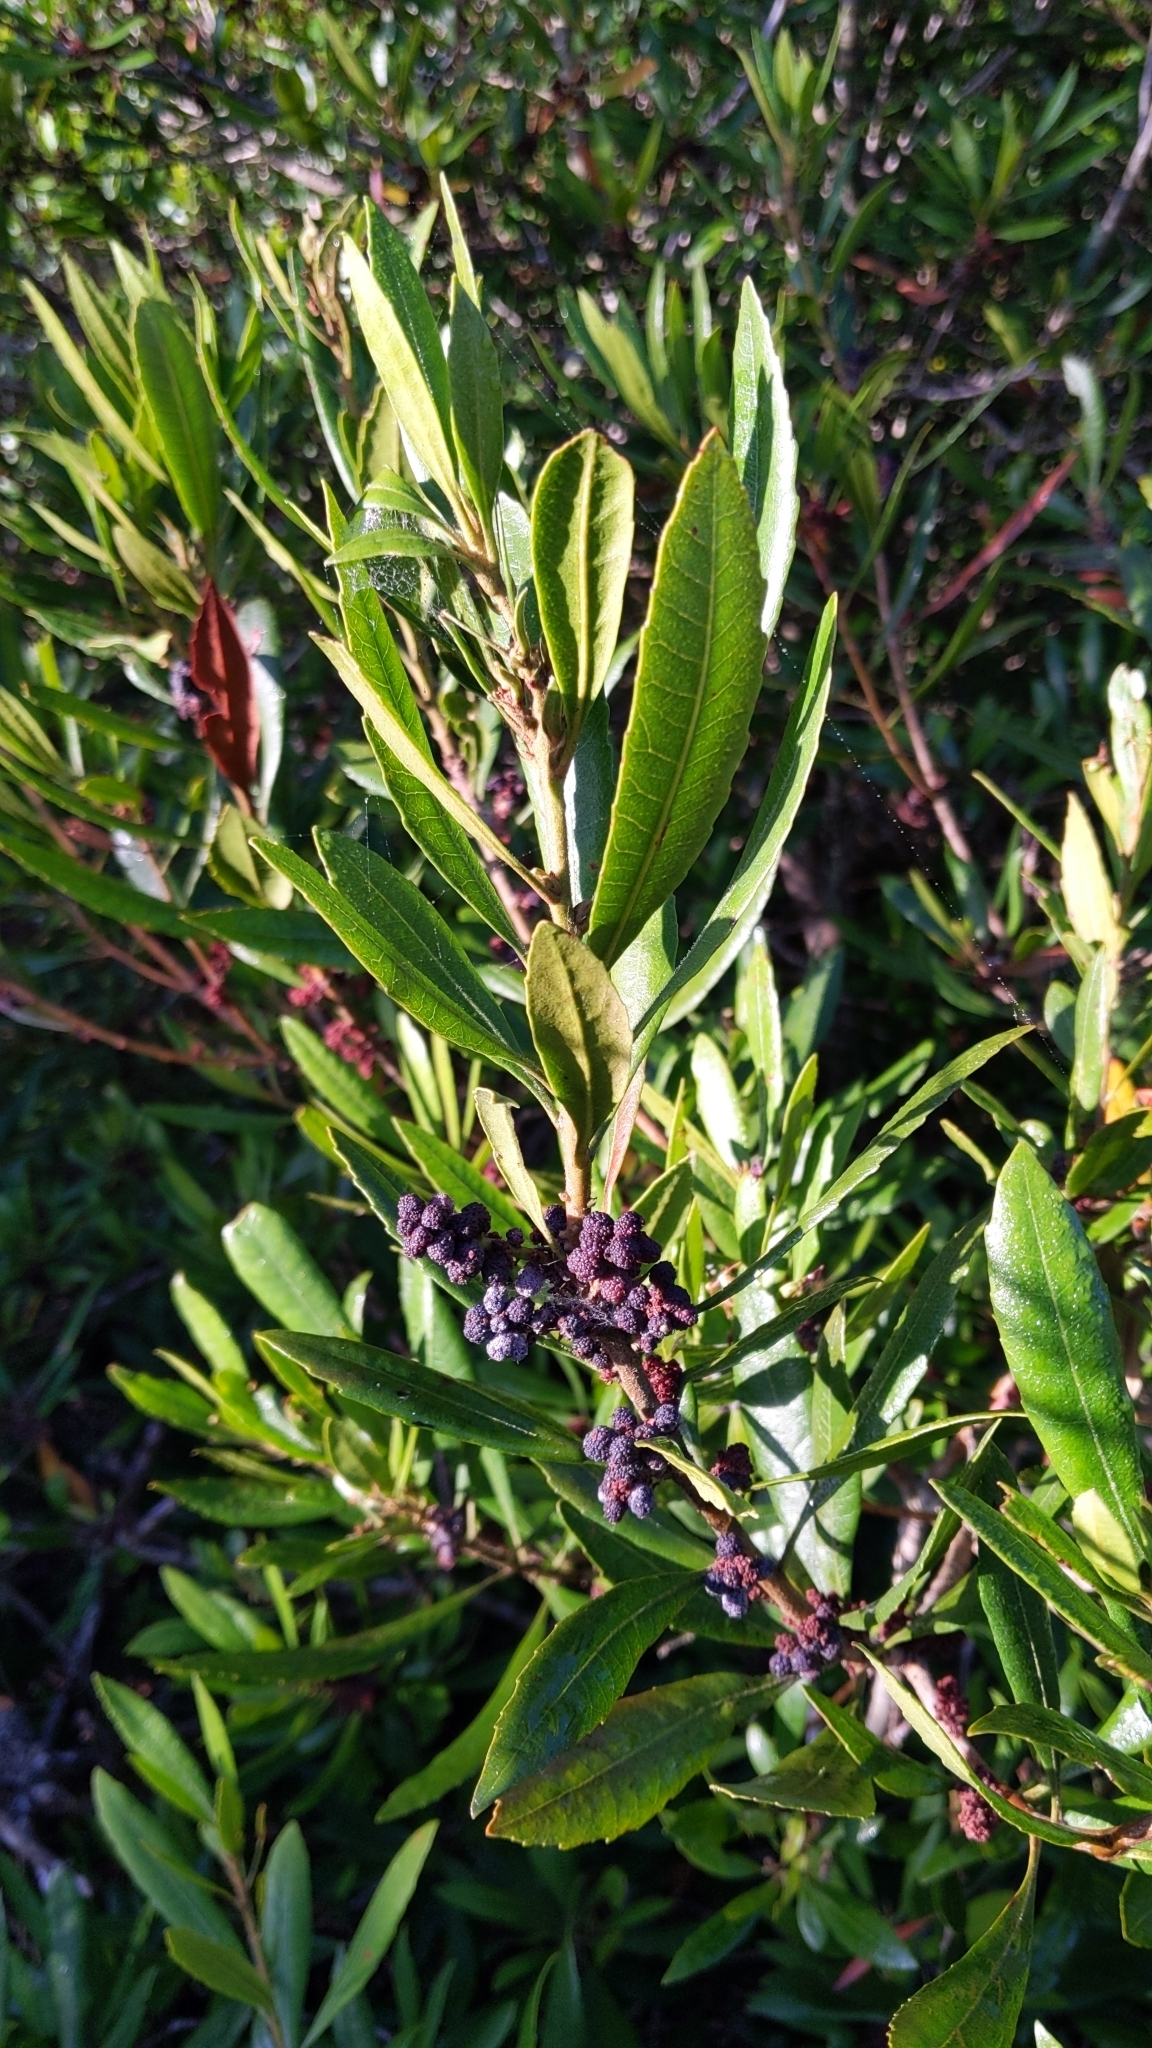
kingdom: Plantae
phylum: Tracheophyta
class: Magnoliopsida
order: Fagales
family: Myricaceae
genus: Morella
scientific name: Morella californica
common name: California wax-myrtle
